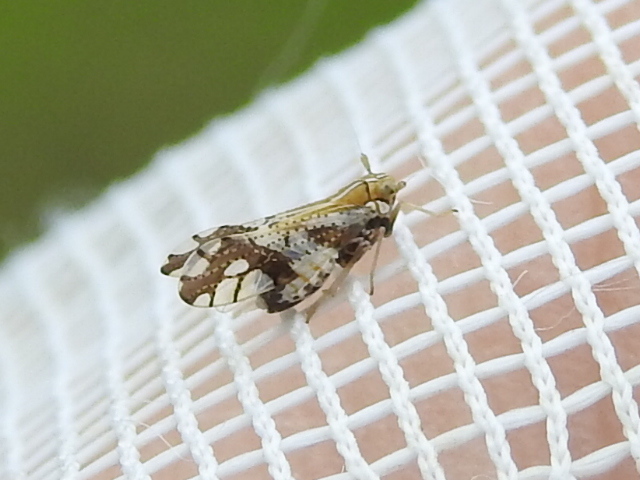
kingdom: Animalia
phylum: Arthropoda
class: Insecta
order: Hemiptera
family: Delphacidae
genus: Liburniella
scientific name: Liburniella ornata
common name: Ornate planthopper
